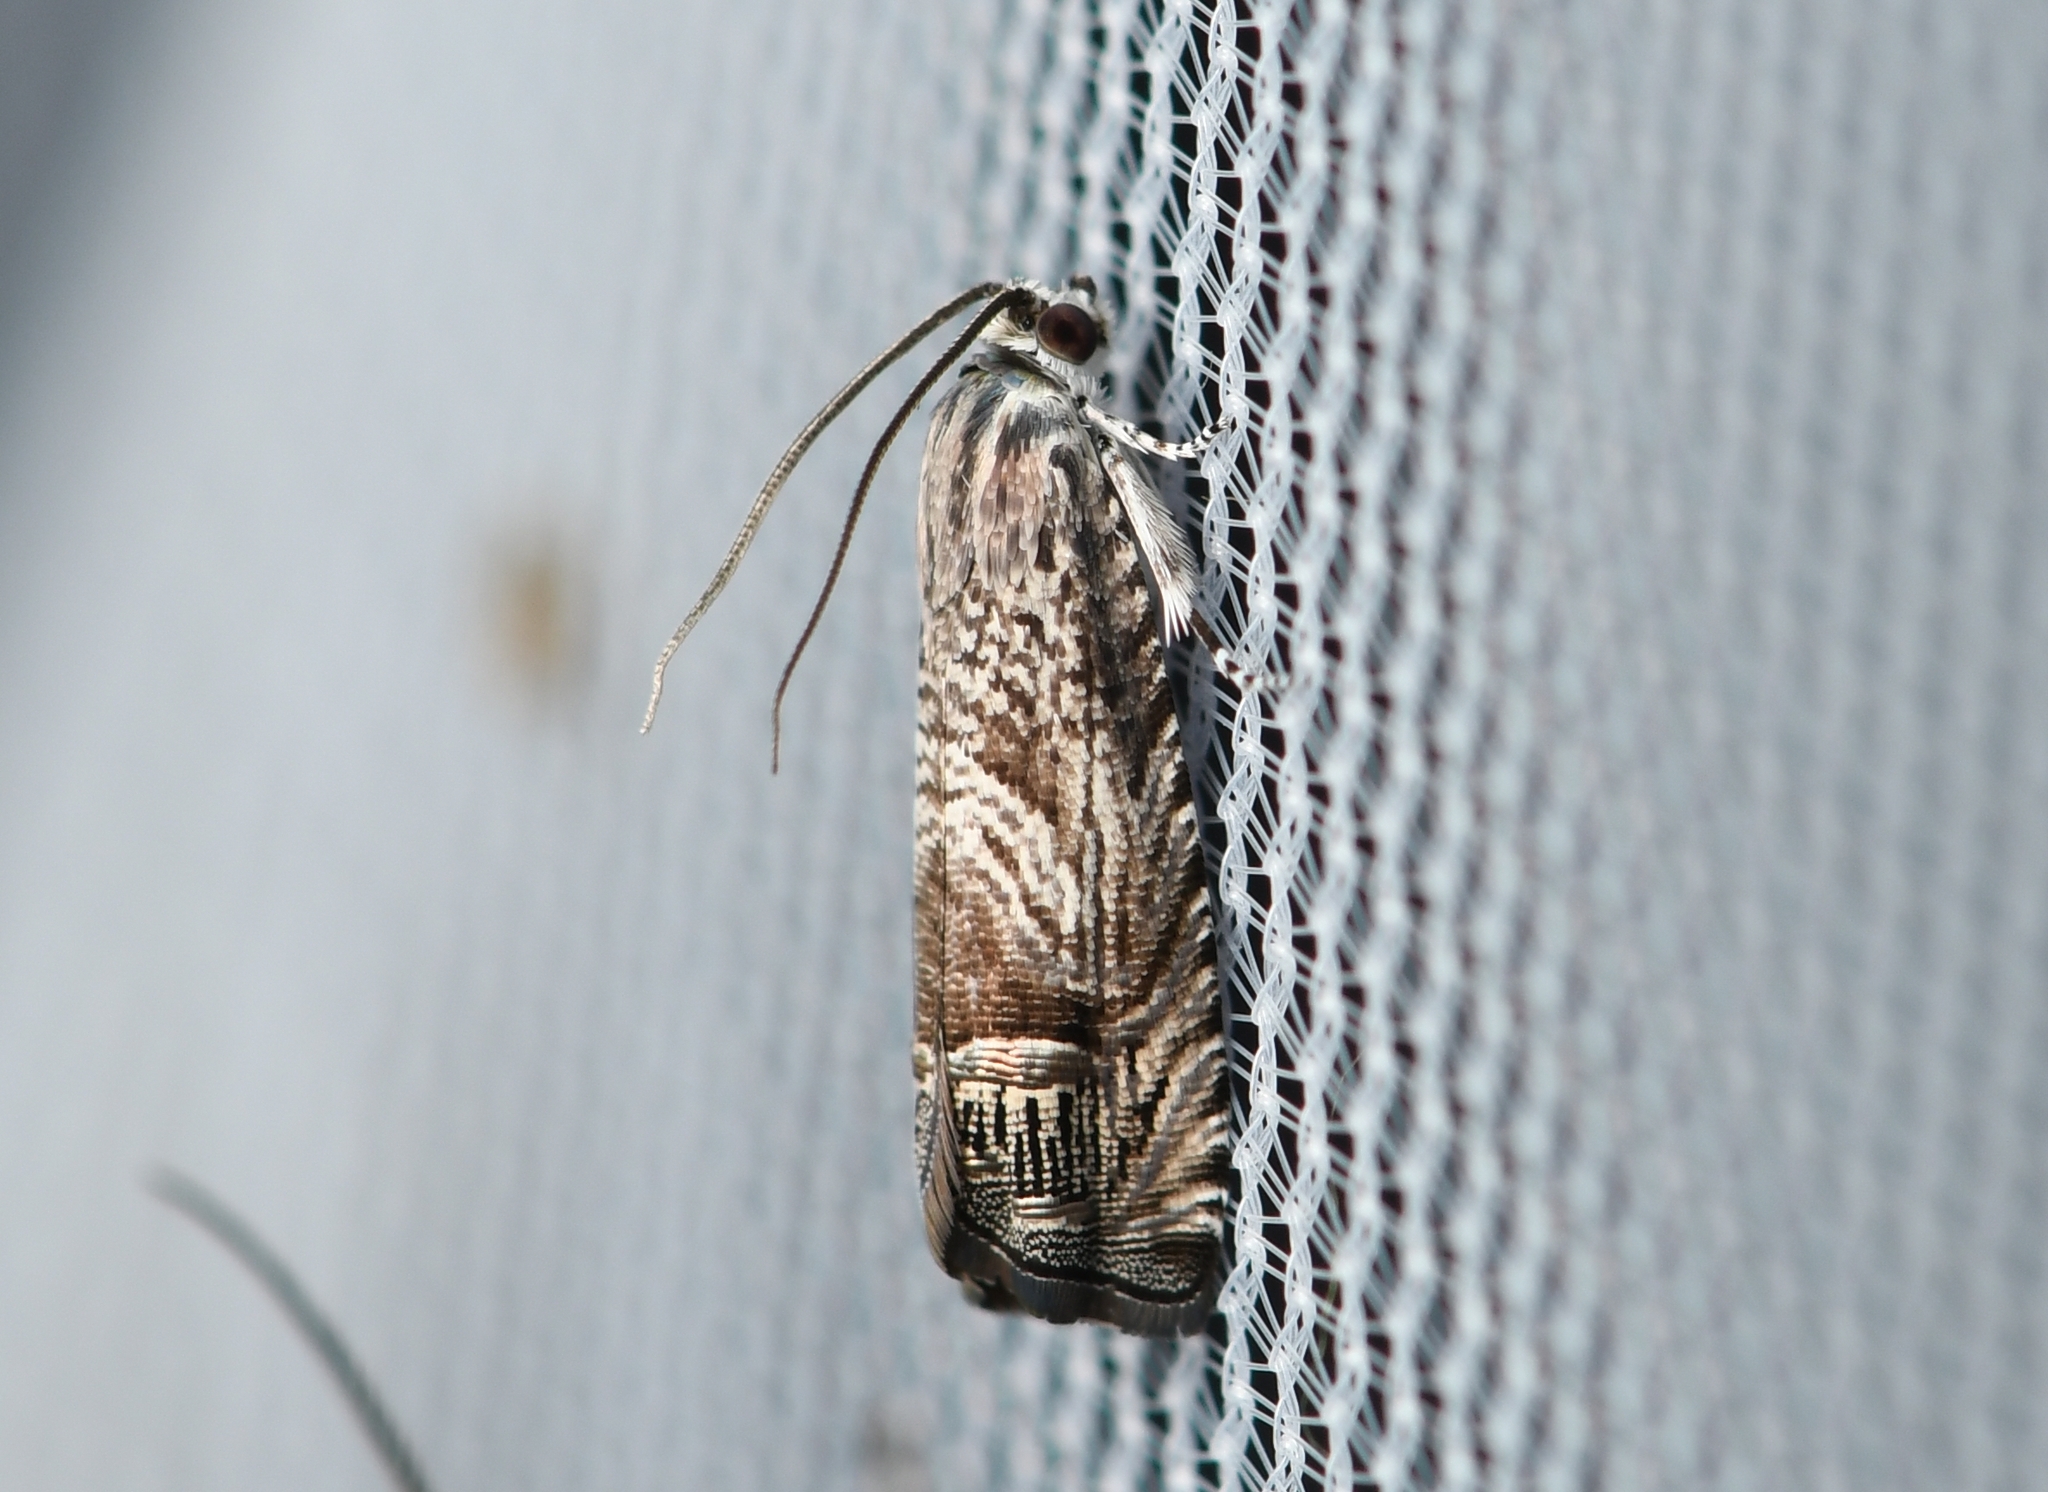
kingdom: Animalia
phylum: Arthropoda
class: Insecta
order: Lepidoptera
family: Tortricidae
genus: Ofatulena
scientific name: Ofatulena duodecemstriata
